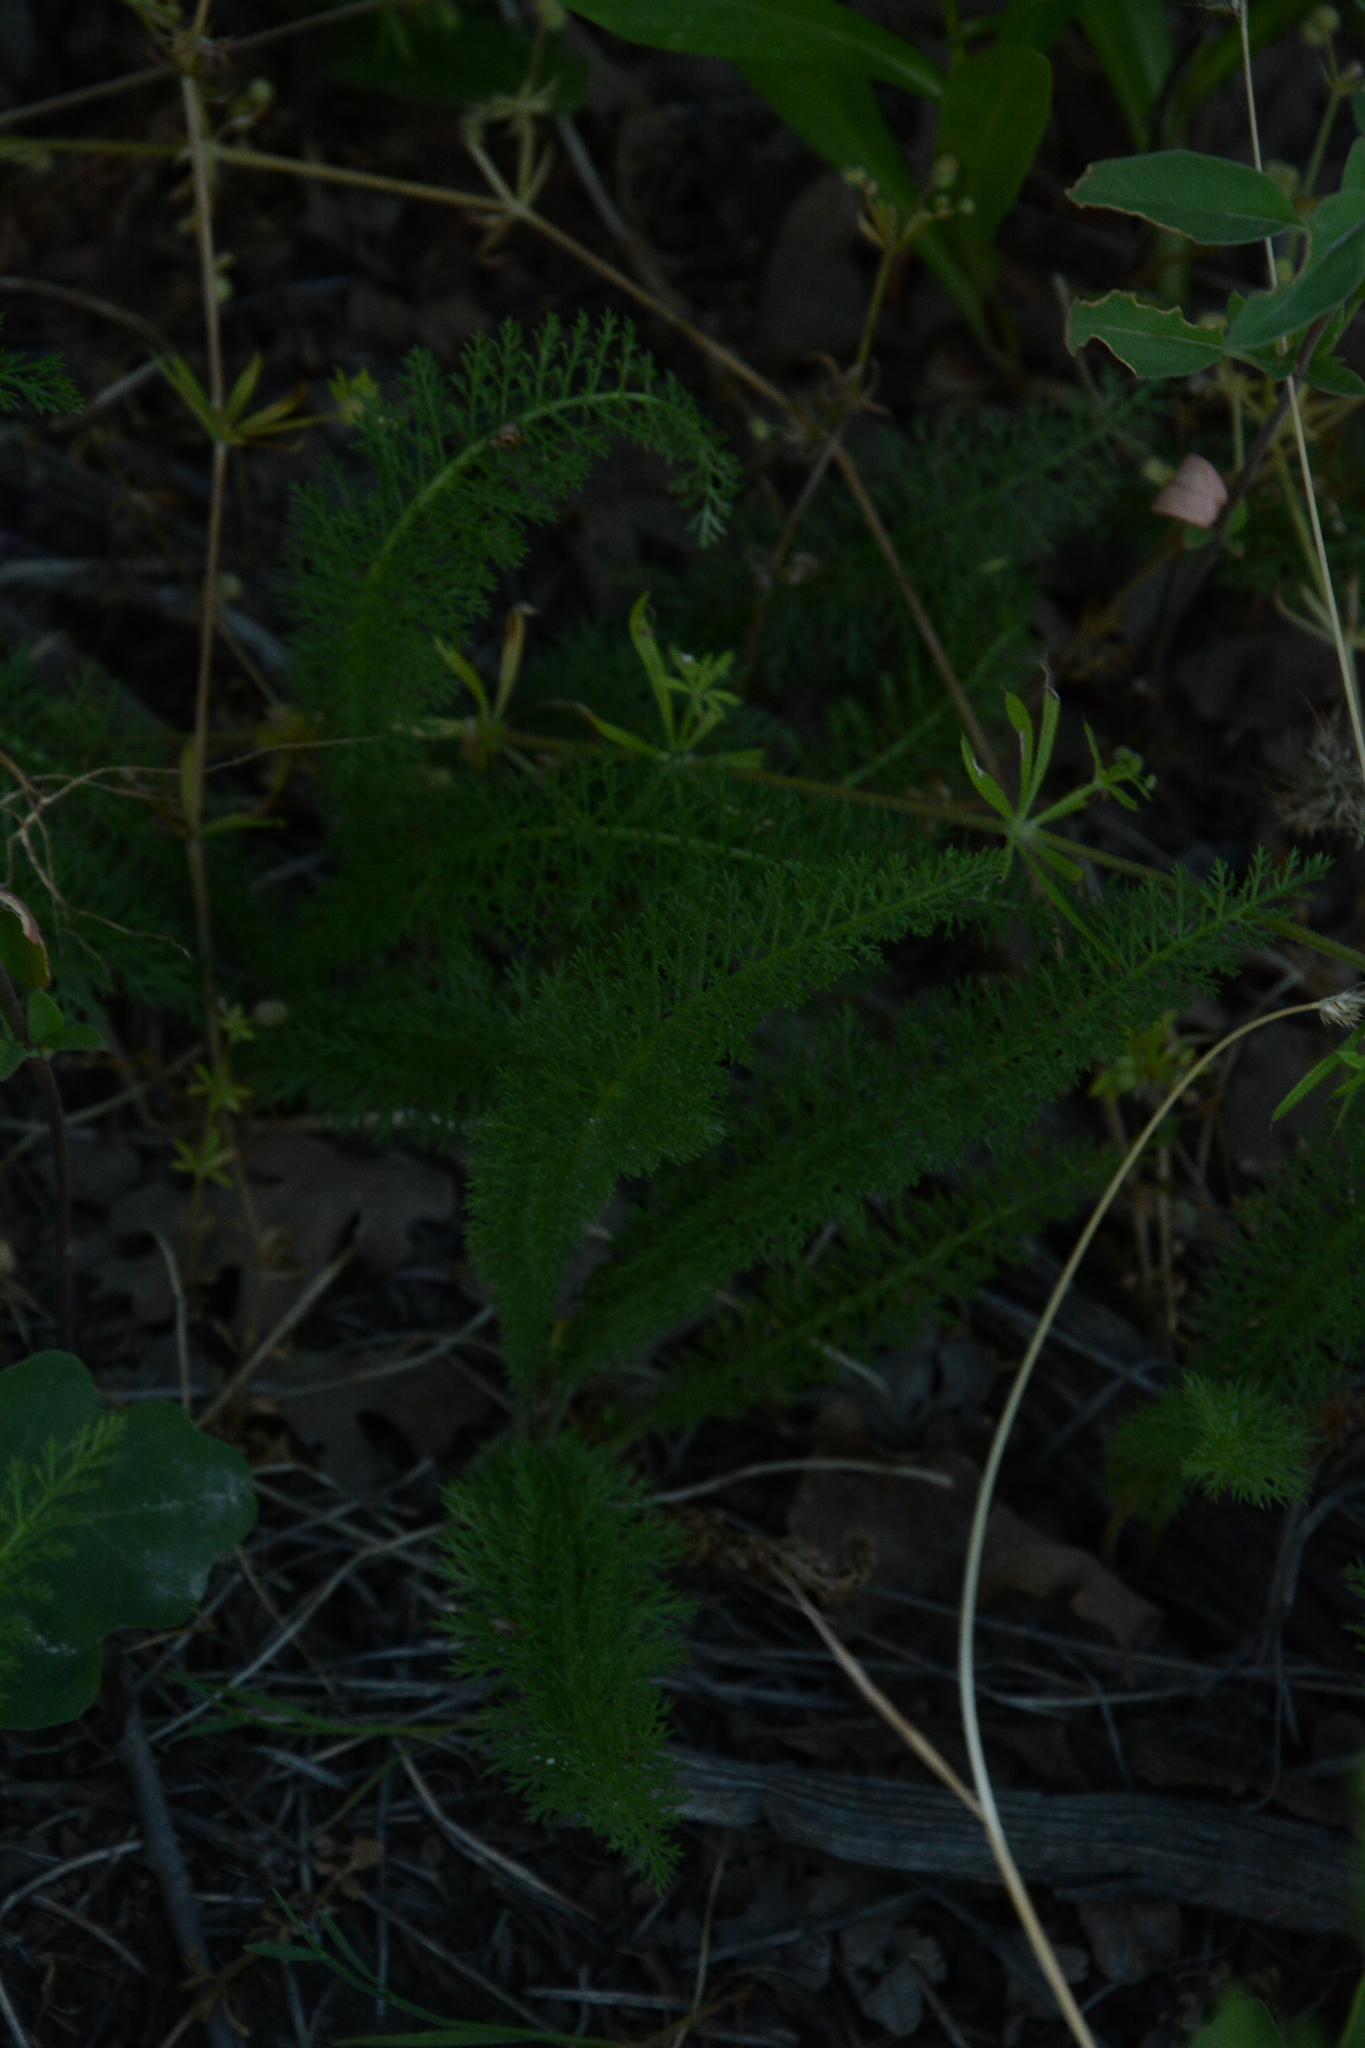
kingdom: Plantae
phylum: Tracheophyta
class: Magnoliopsida
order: Asterales
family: Asteraceae
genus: Achillea
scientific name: Achillea millefolium
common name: Yarrow
